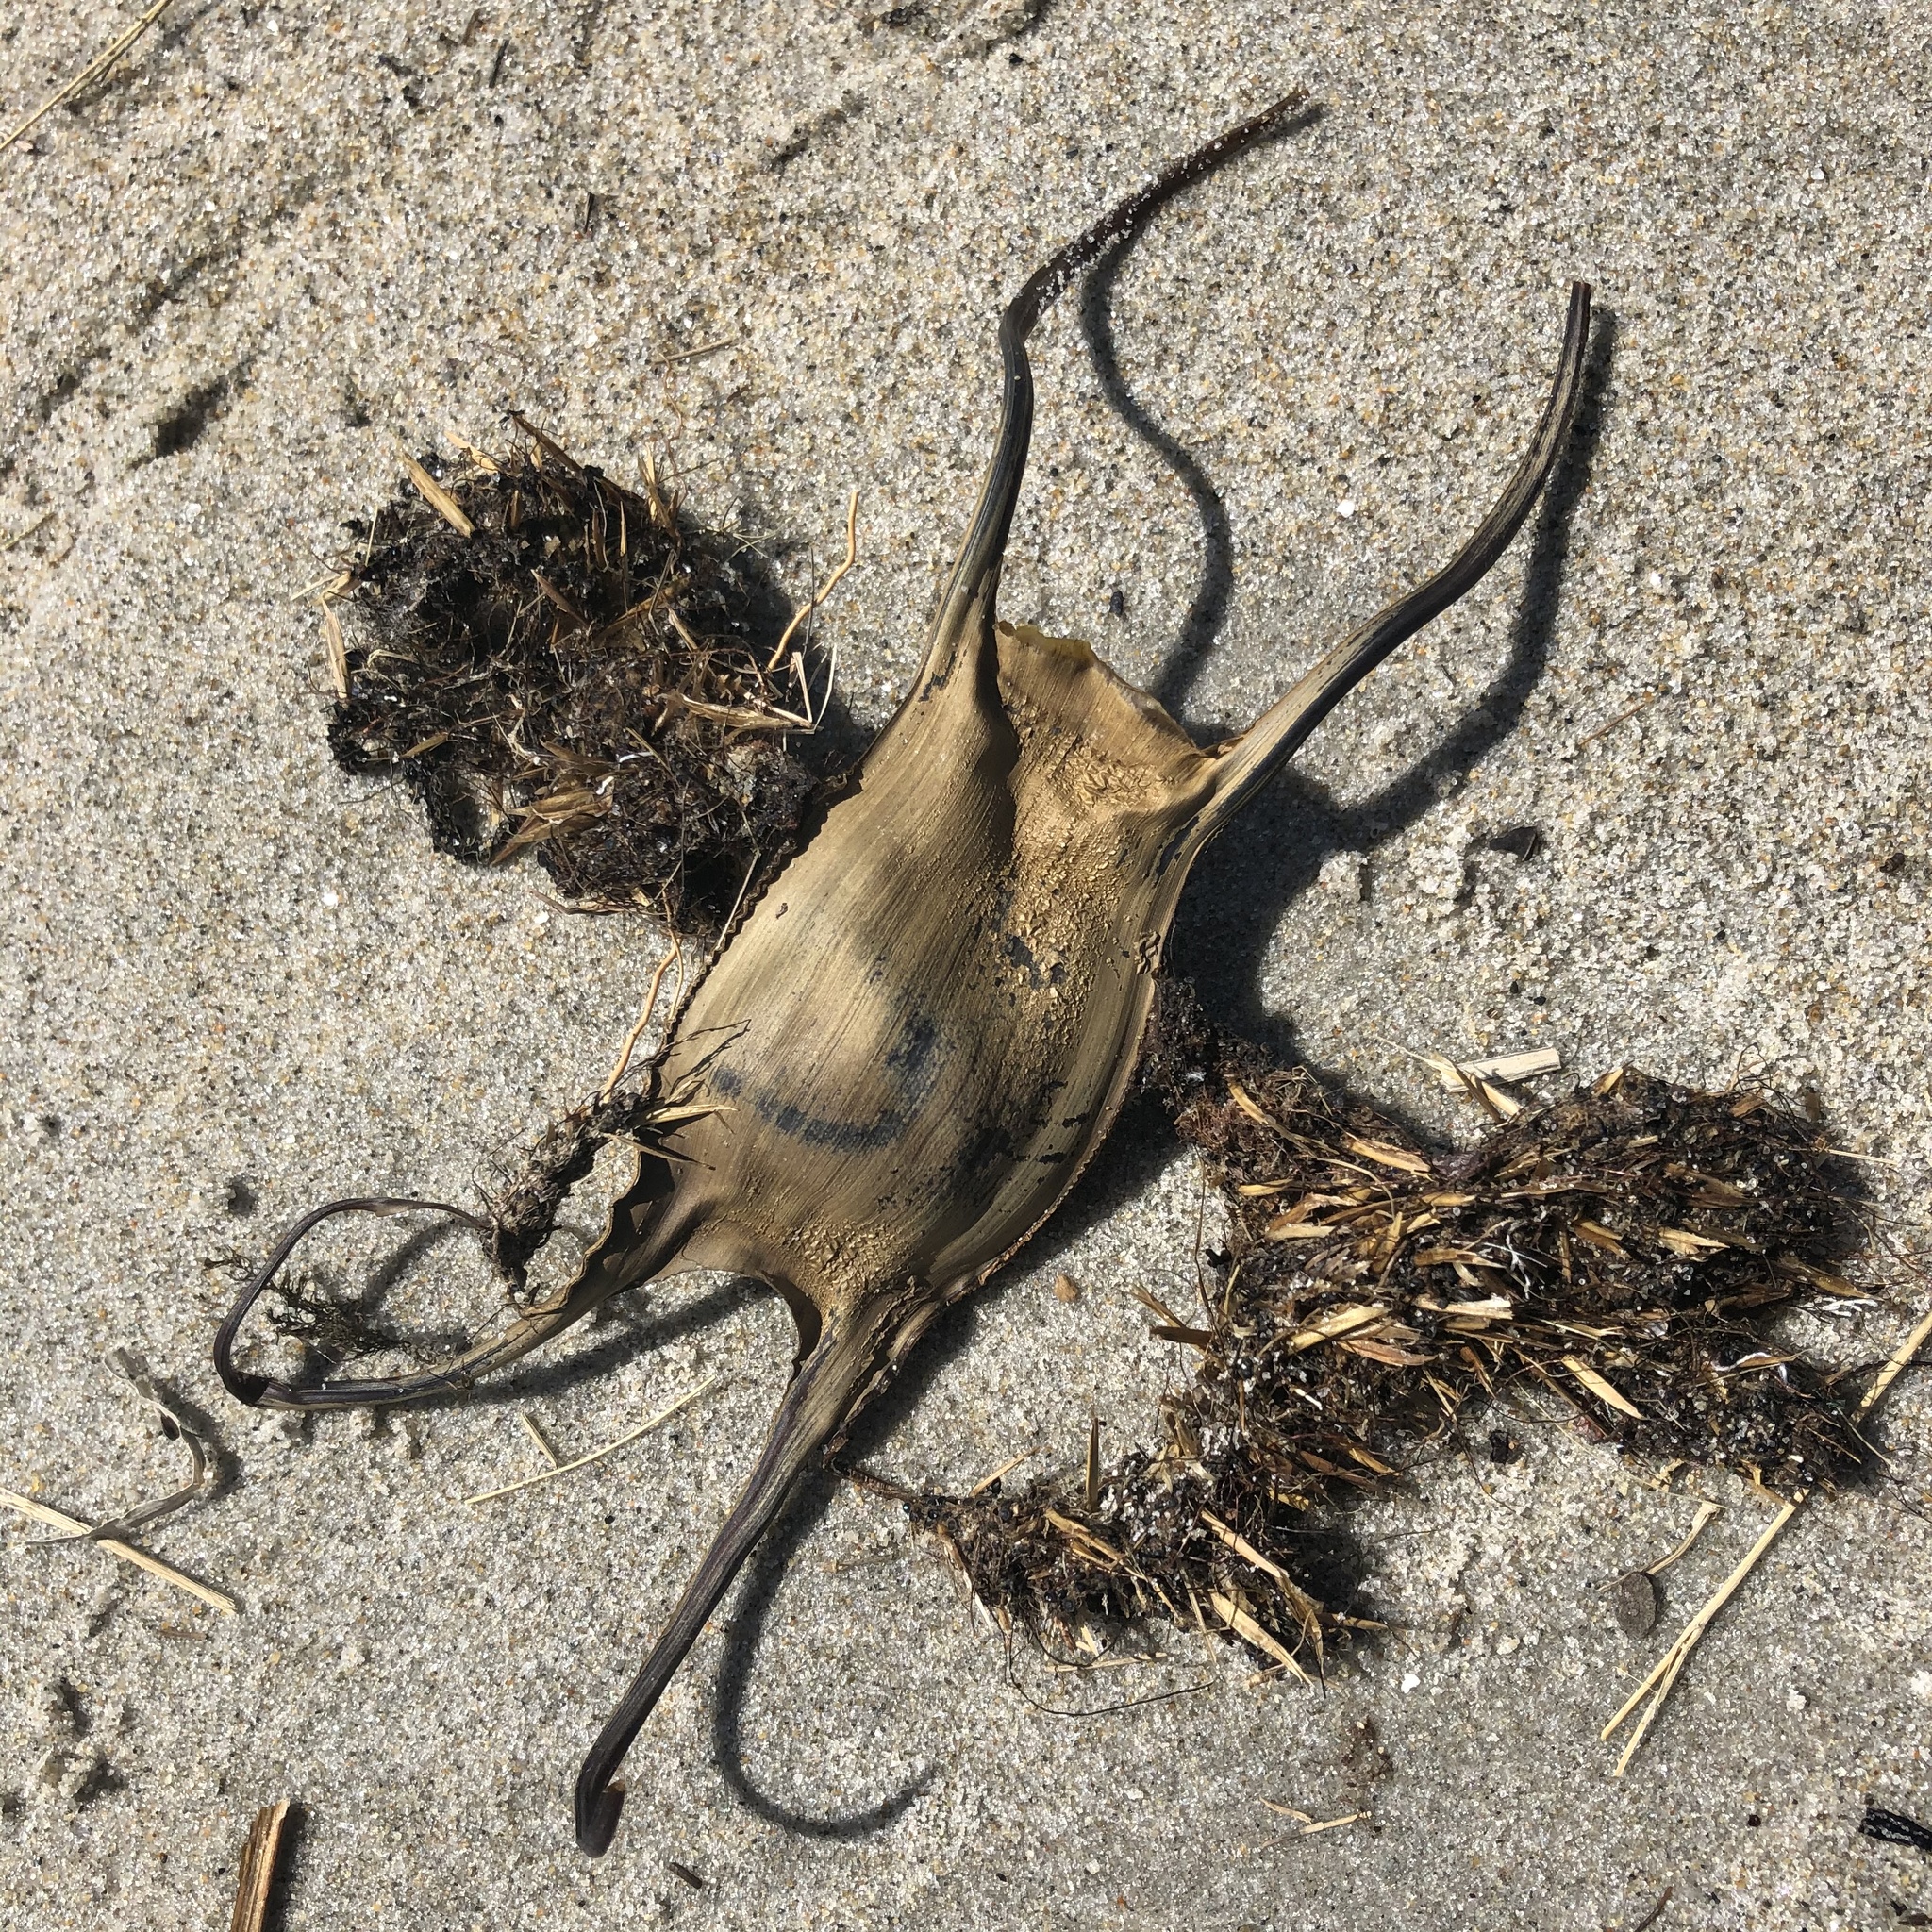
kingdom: Animalia
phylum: Chordata
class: Elasmobranchii
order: Rajiformes
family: Rajidae
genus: Leucoraja
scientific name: Leucoraja ocellata
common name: Winter skate
